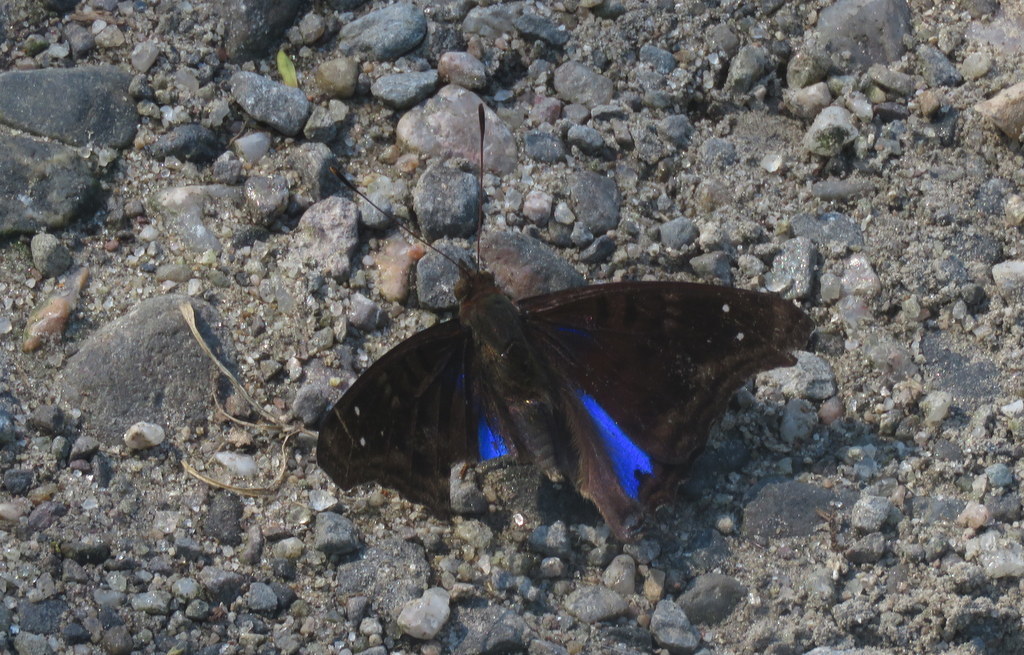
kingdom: Animalia
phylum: Arthropoda
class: Insecta
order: Lepidoptera
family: Nymphalidae
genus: Doxocopa
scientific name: Doxocopa cyane
